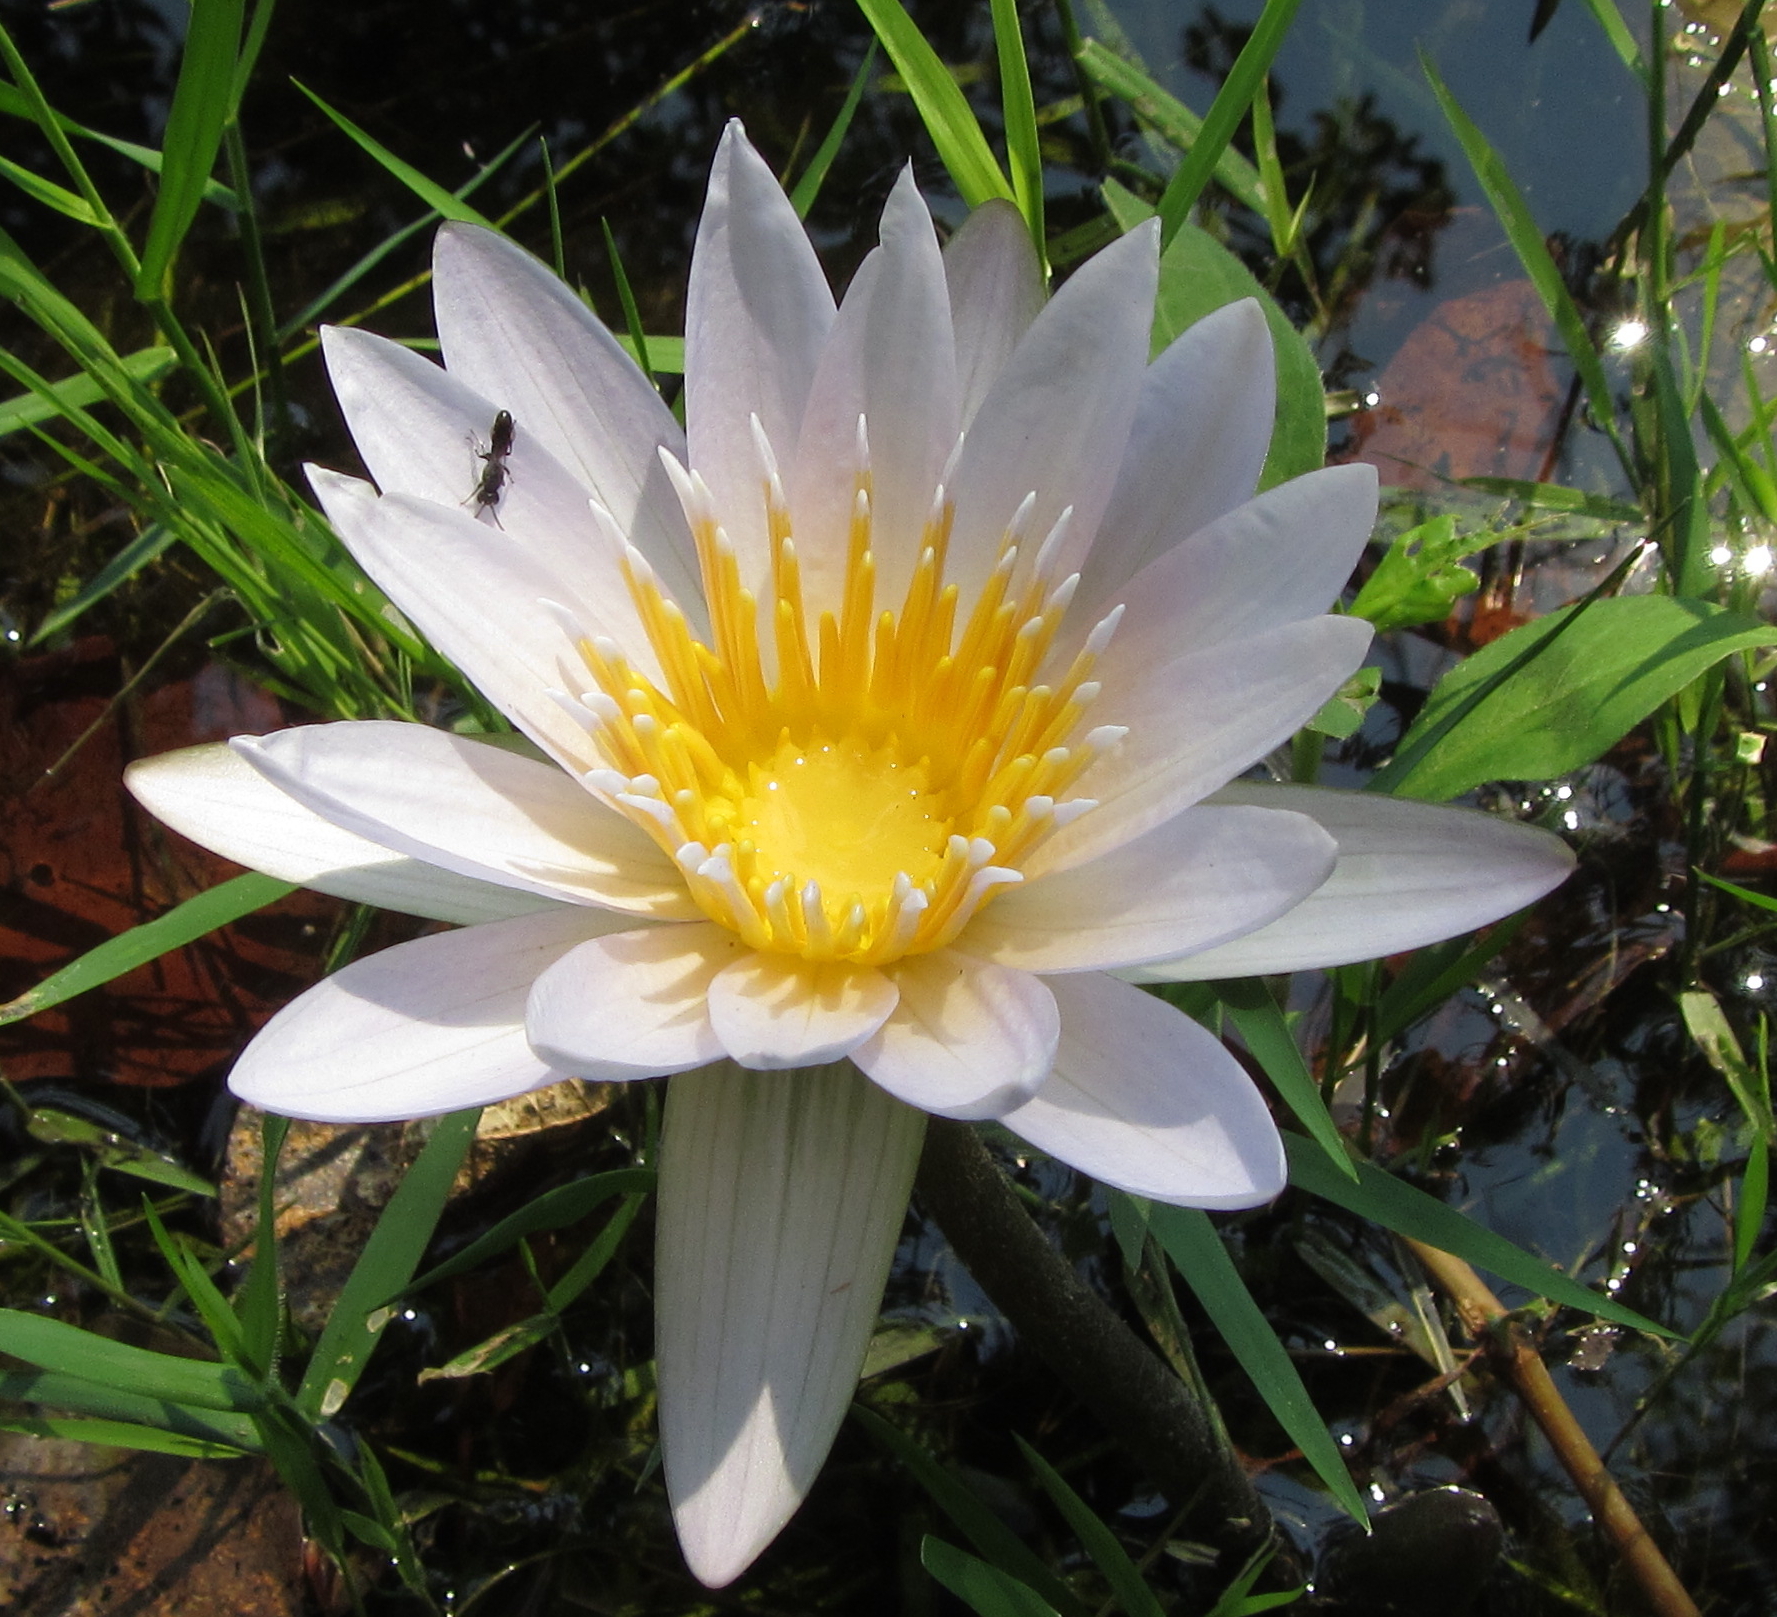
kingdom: Plantae
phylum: Tracheophyta
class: Magnoliopsida
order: Nymphaeales
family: Nymphaeaceae
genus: Nymphaea
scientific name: Nymphaea nouchali
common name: Blue lotus
